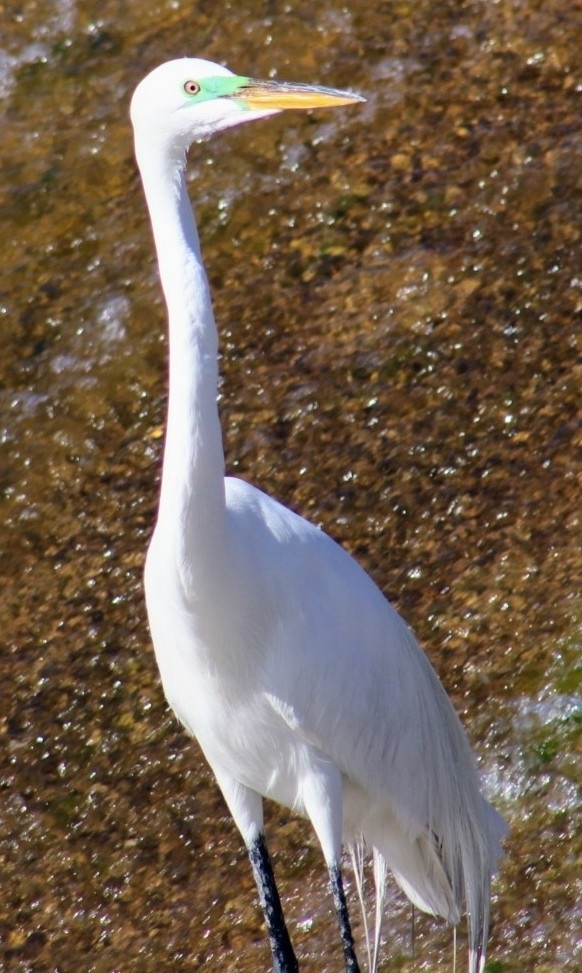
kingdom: Animalia
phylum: Chordata
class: Aves
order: Pelecaniformes
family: Ardeidae
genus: Ardea
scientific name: Ardea alba
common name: Great egret
